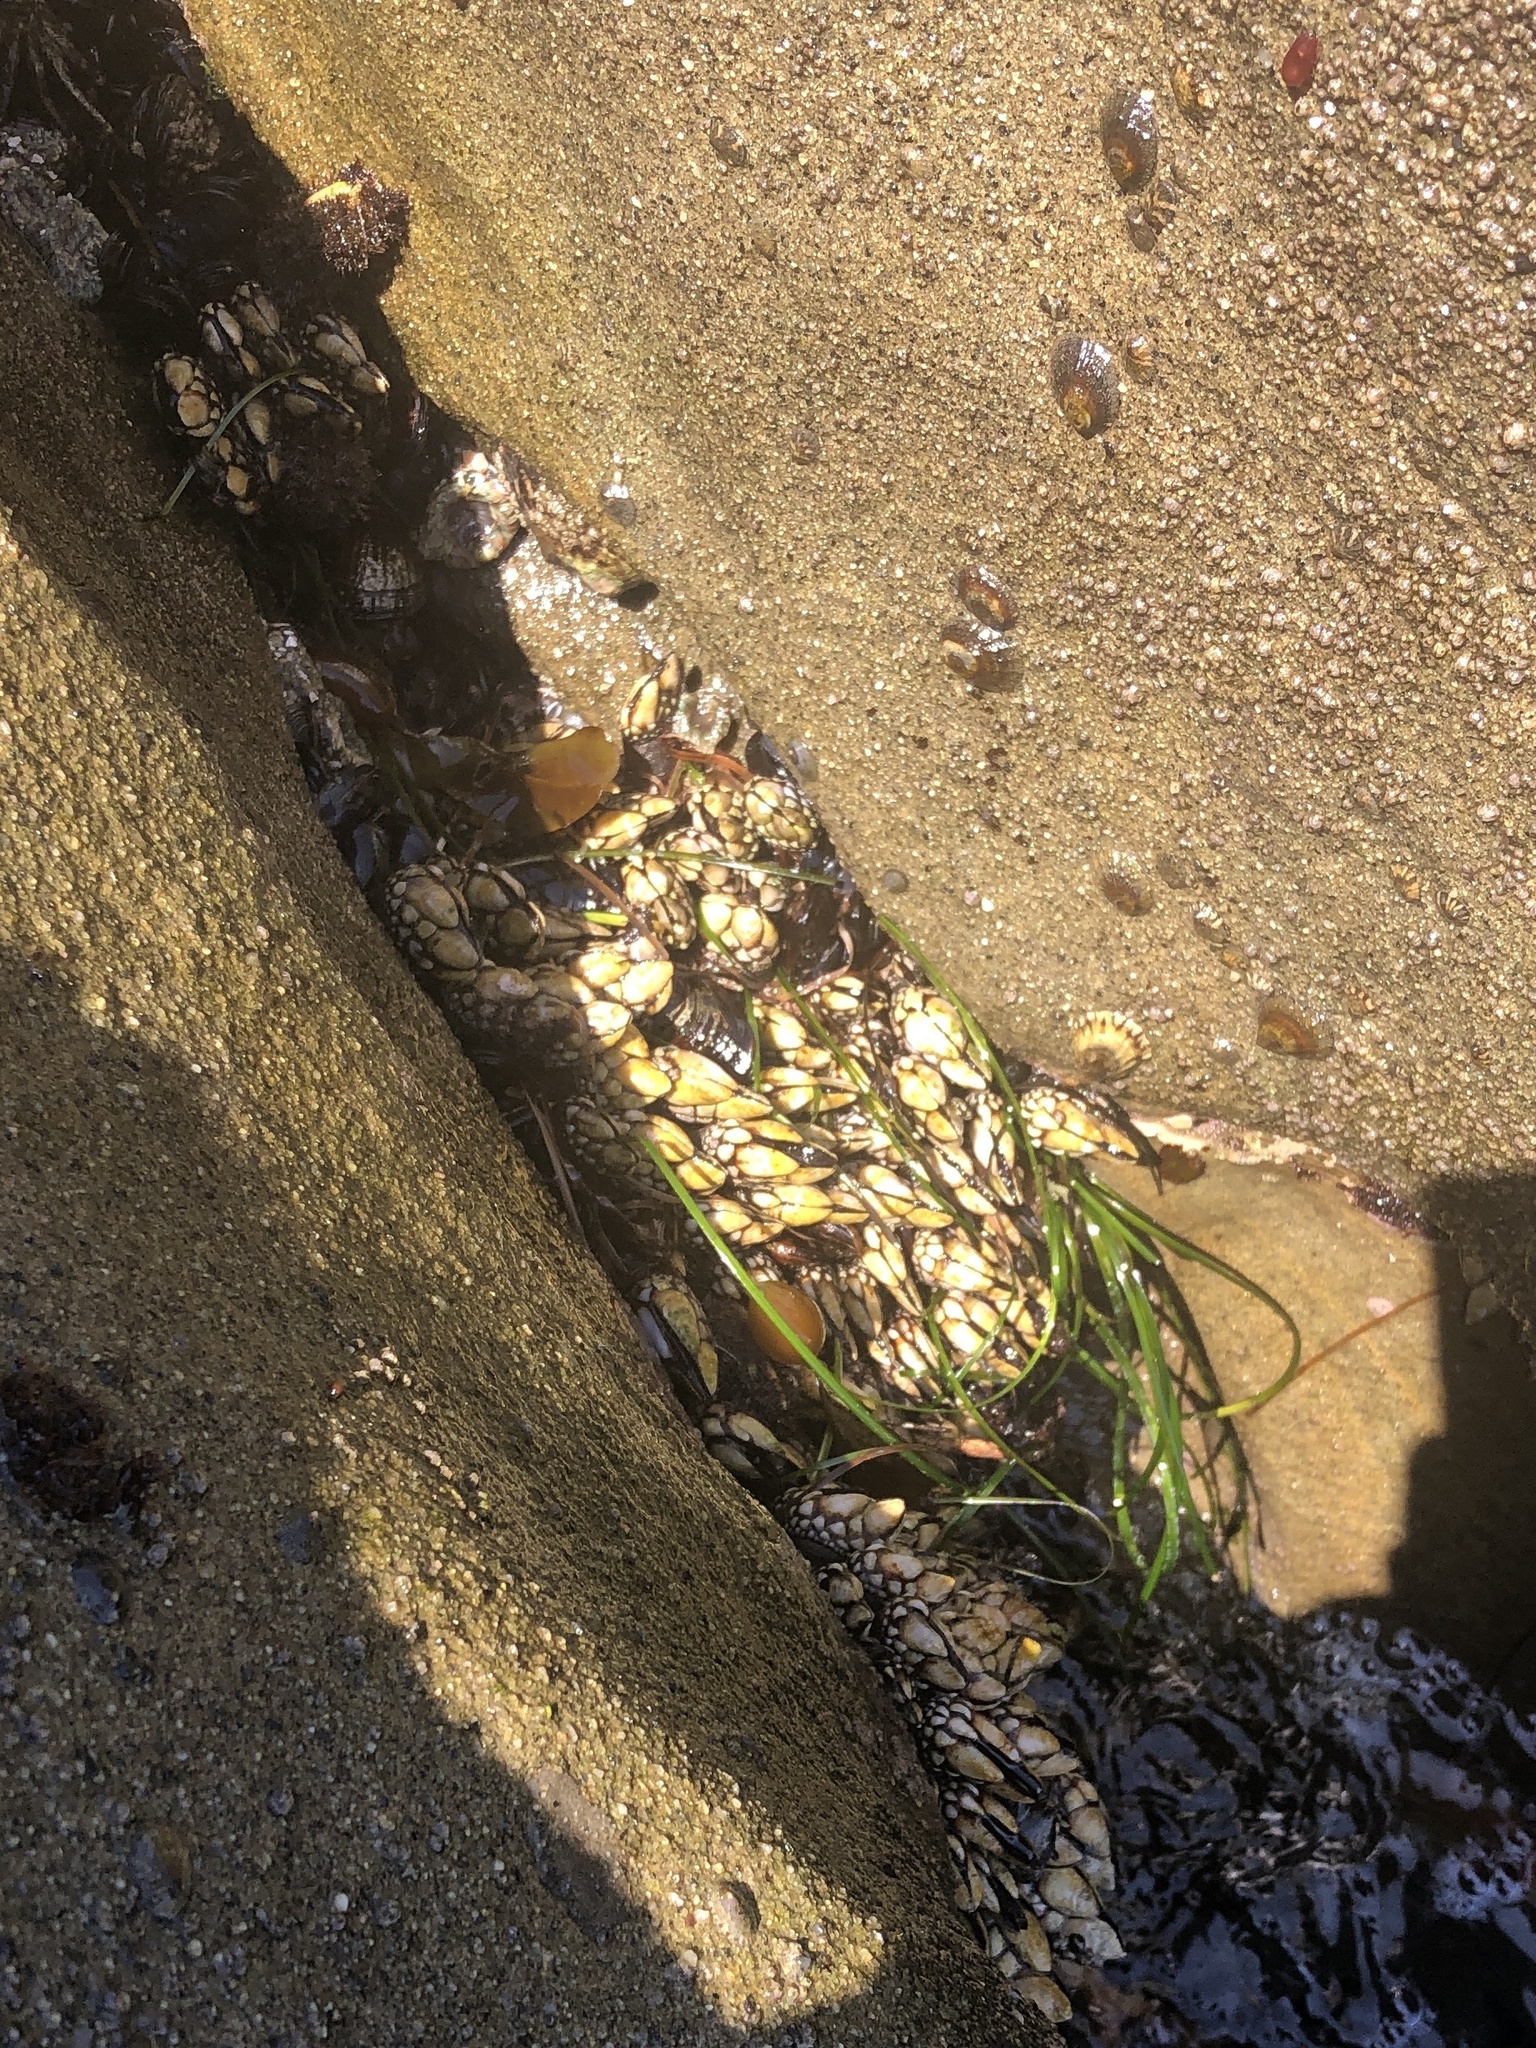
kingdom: Animalia
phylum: Arthropoda
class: Maxillopoda
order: Pedunculata
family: Pollicipedidae
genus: Pollicipes
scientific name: Pollicipes polymerus
